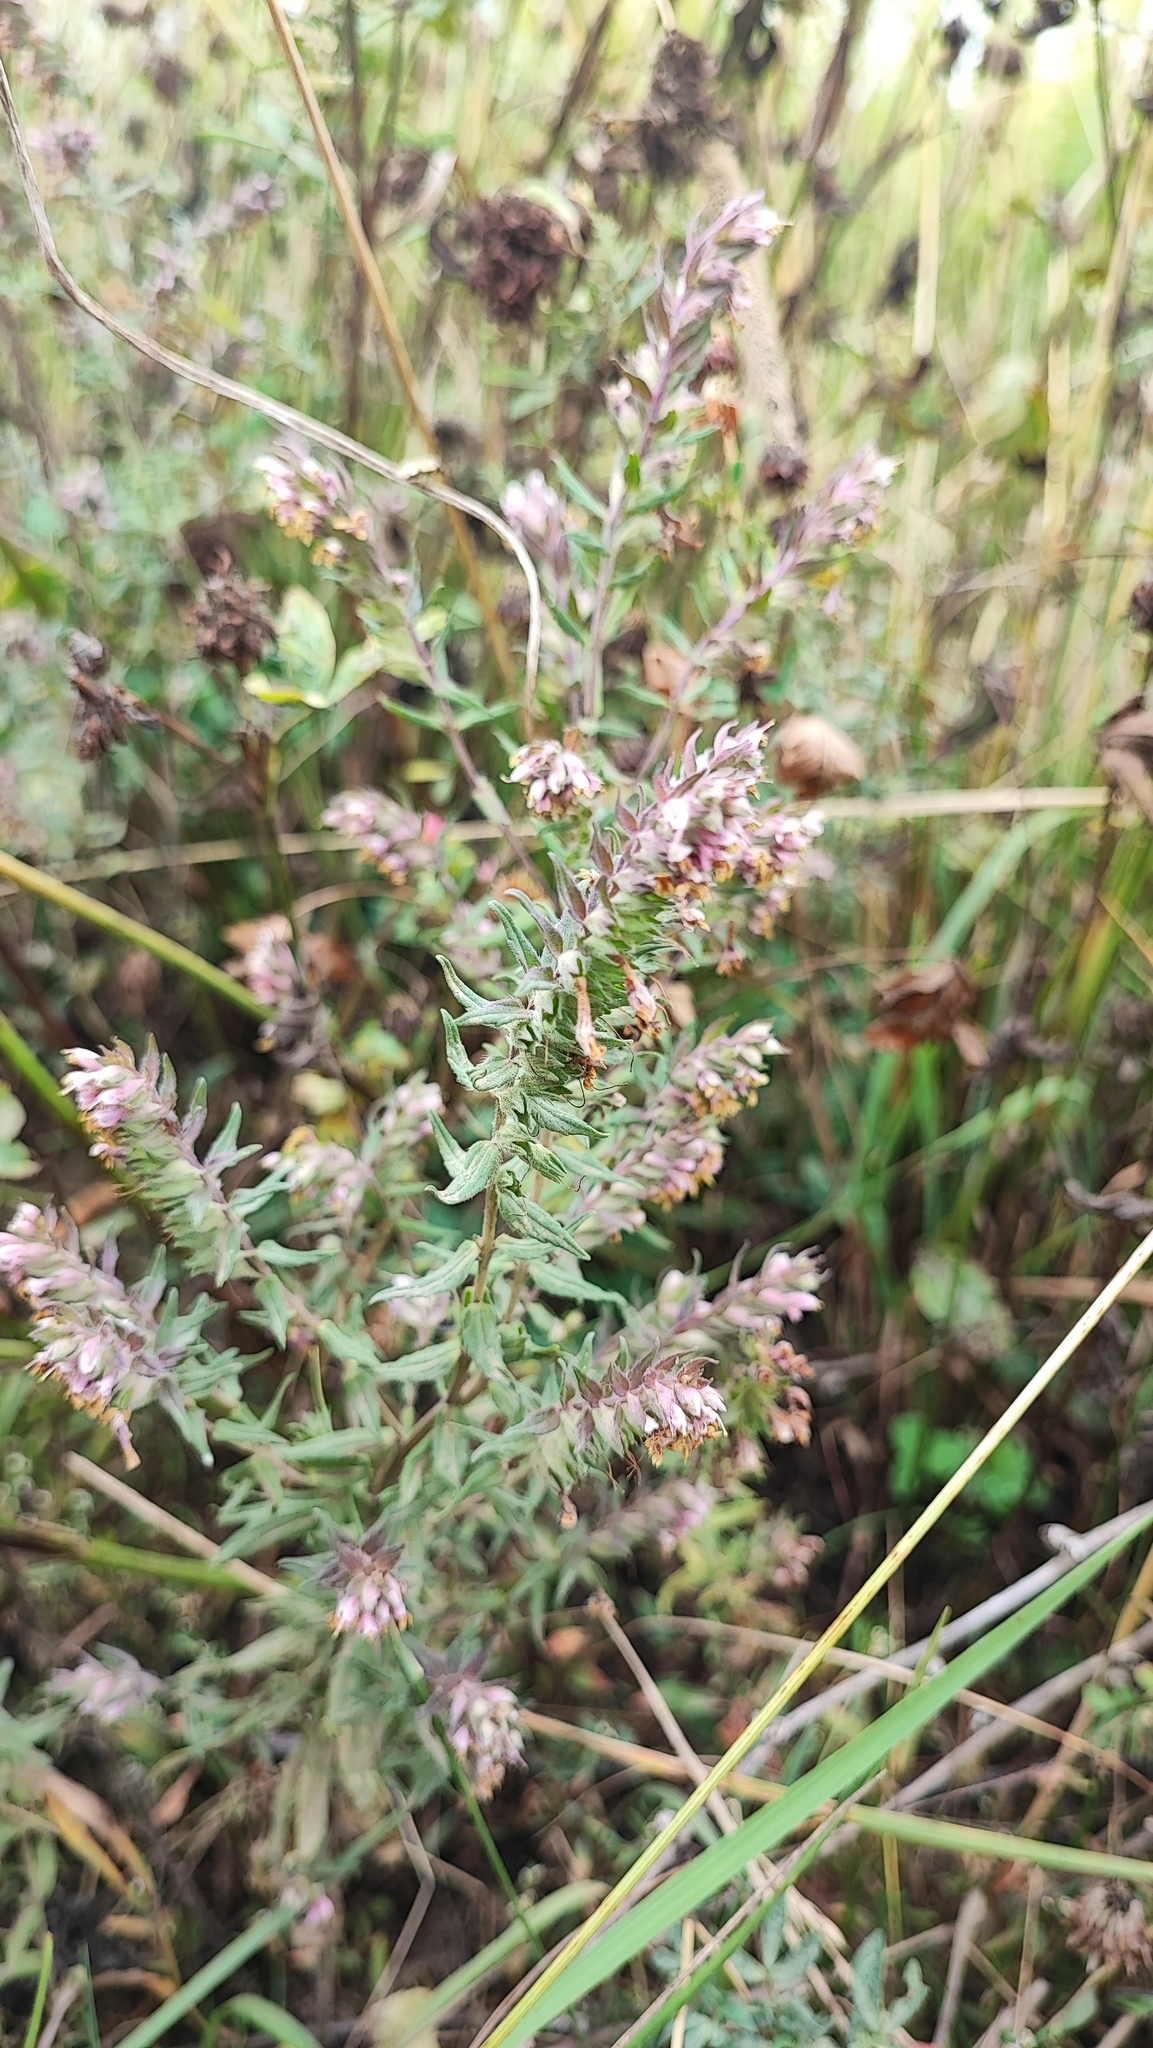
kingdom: Plantae
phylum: Tracheophyta
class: Magnoliopsida
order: Lamiales
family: Orobanchaceae
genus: Odontites
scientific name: Odontites vulgaris
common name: Broomrape
